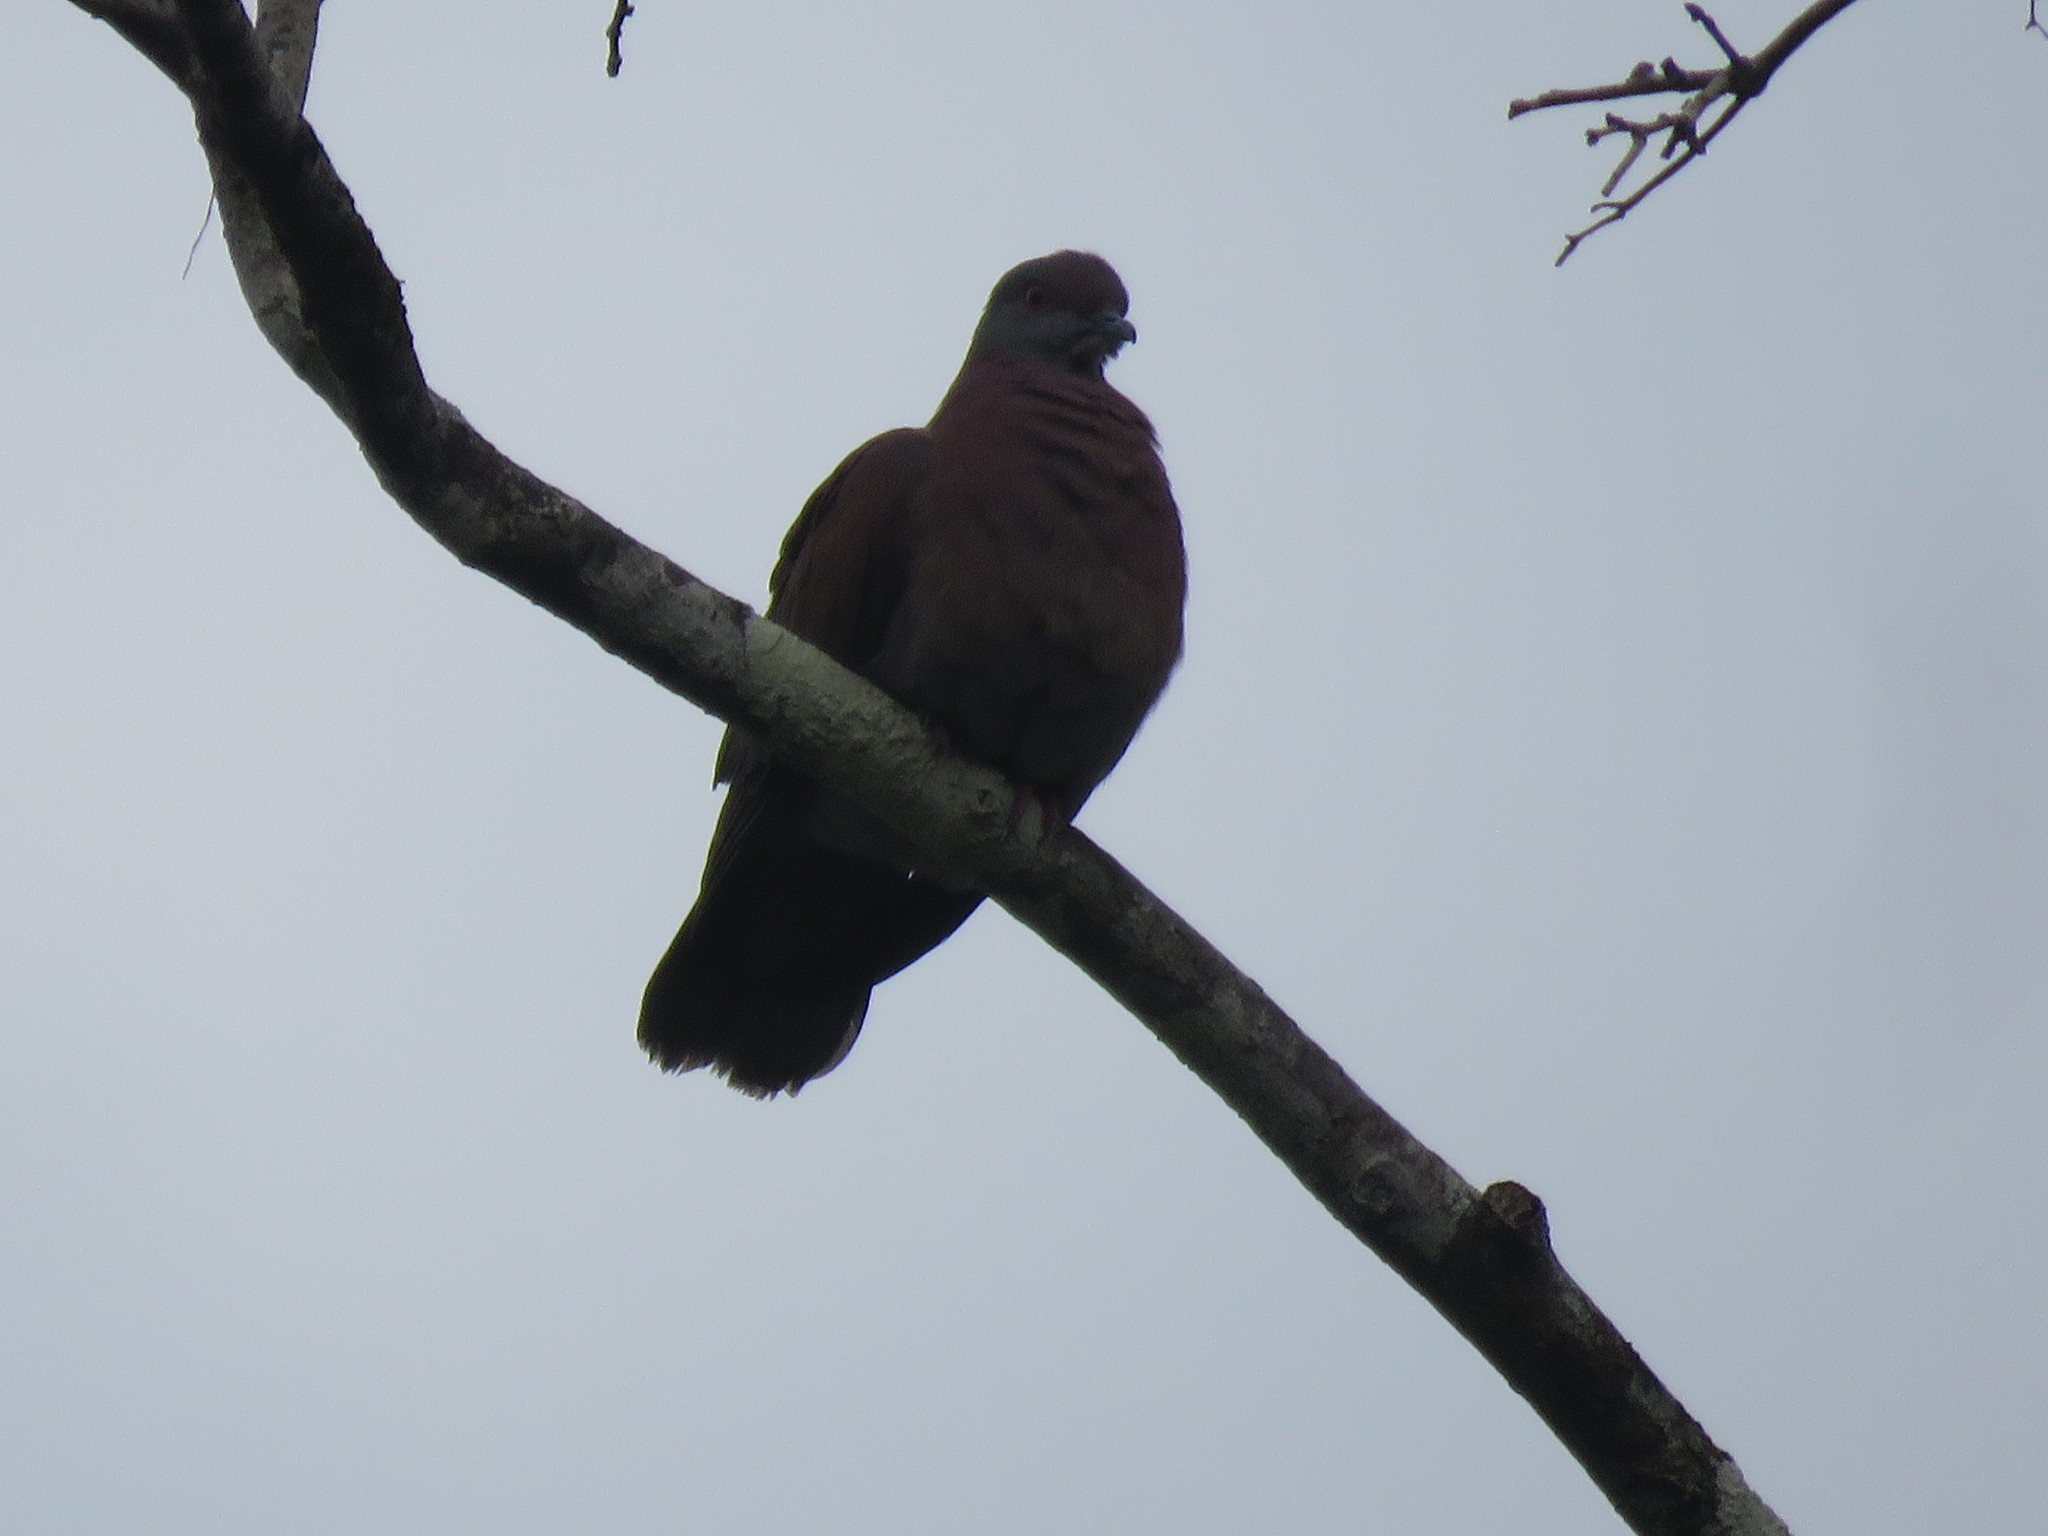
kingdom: Animalia
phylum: Chordata
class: Aves
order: Columbiformes
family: Columbidae
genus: Patagioenas
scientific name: Patagioenas cayennensis
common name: Pale-vented pigeon
